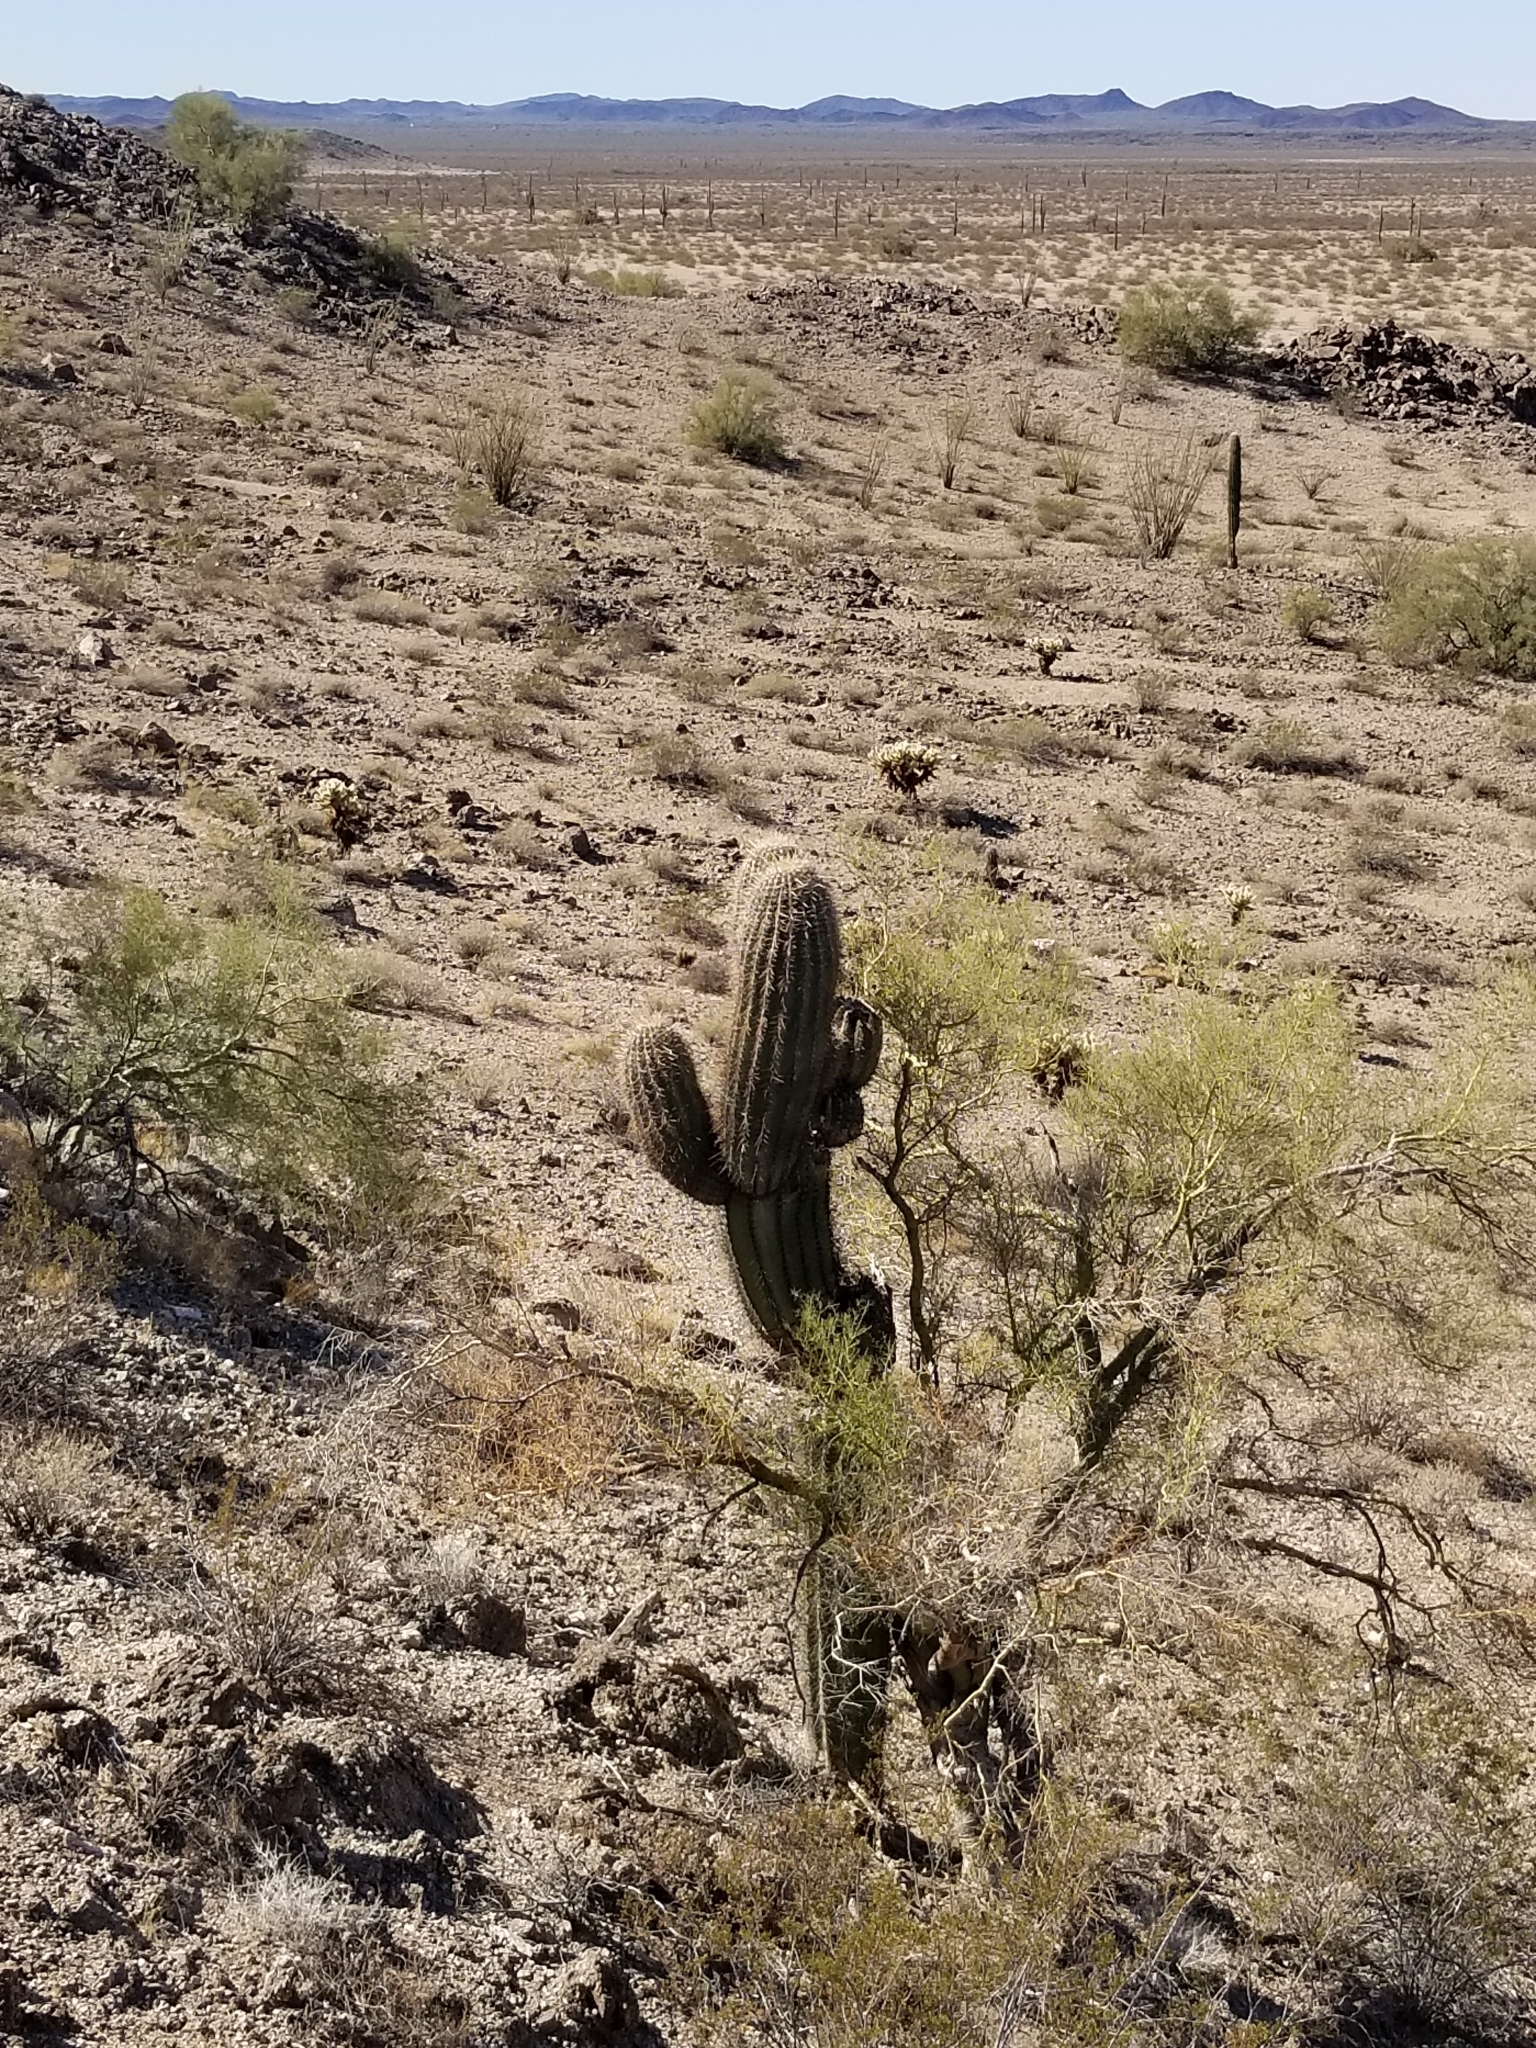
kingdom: Plantae
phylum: Tracheophyta
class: Magnoliopsida
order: Fabales
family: Fabaceae
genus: Parkinsonia
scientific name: Parkinsonia microphylla
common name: Yellow paloverde
